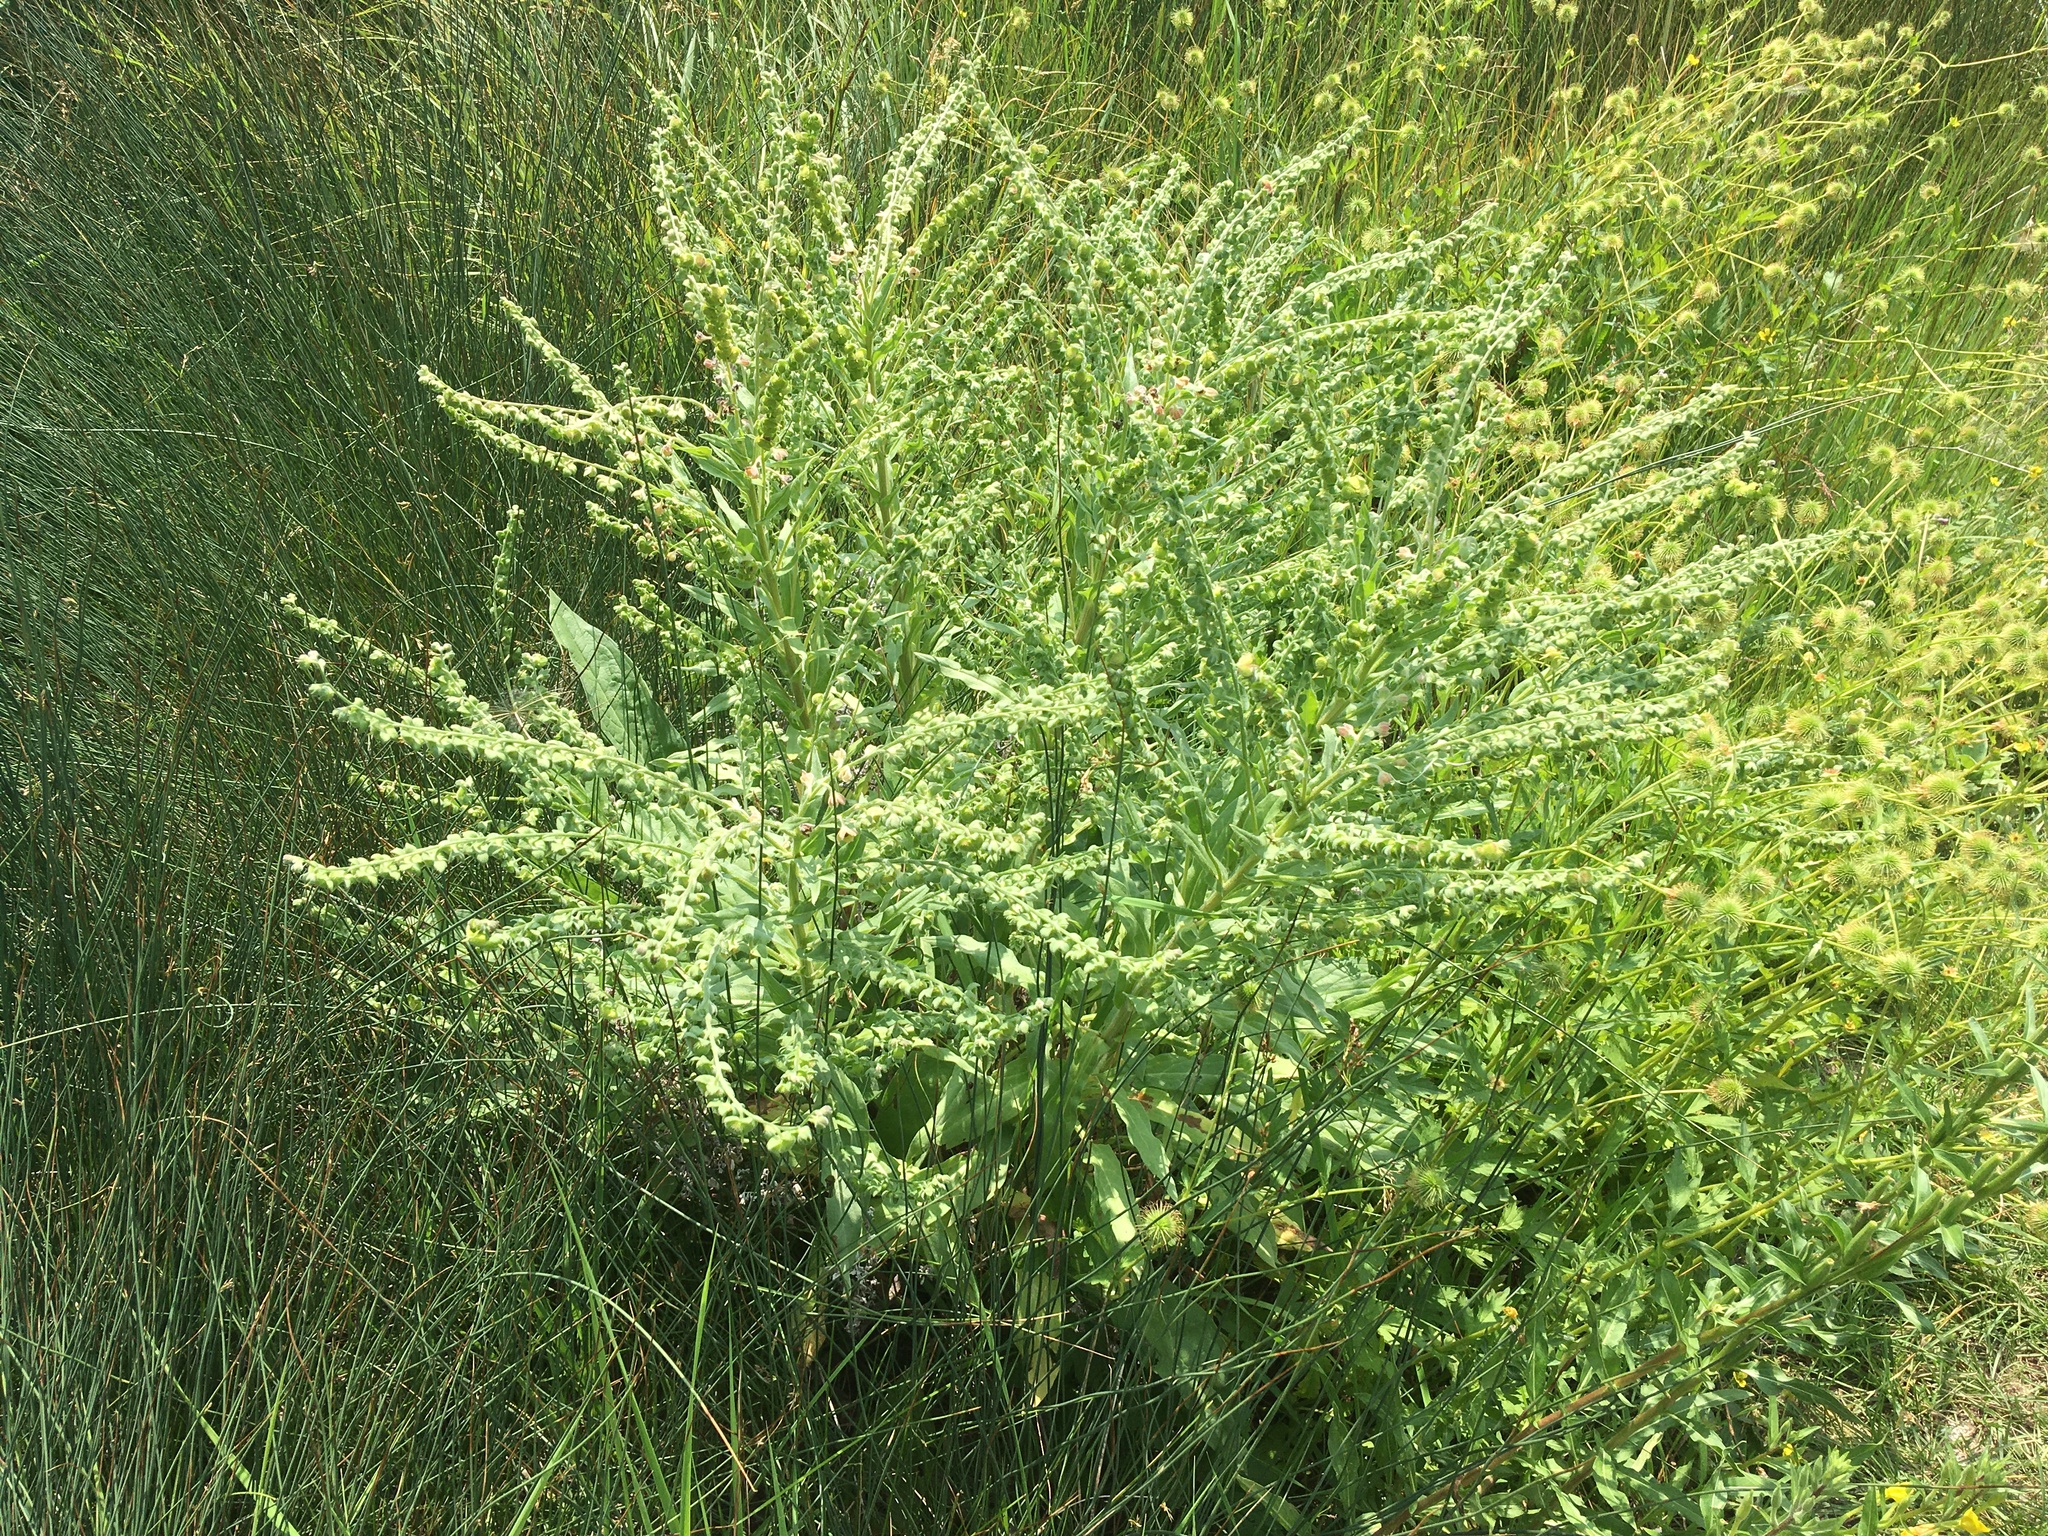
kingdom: Plantae
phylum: Tracheophyta
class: Magnoliopsida
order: Boraginales
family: Boraginaceae
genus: Cynoglossum
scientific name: Cynoglossum officinale
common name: Hound's-tongue
